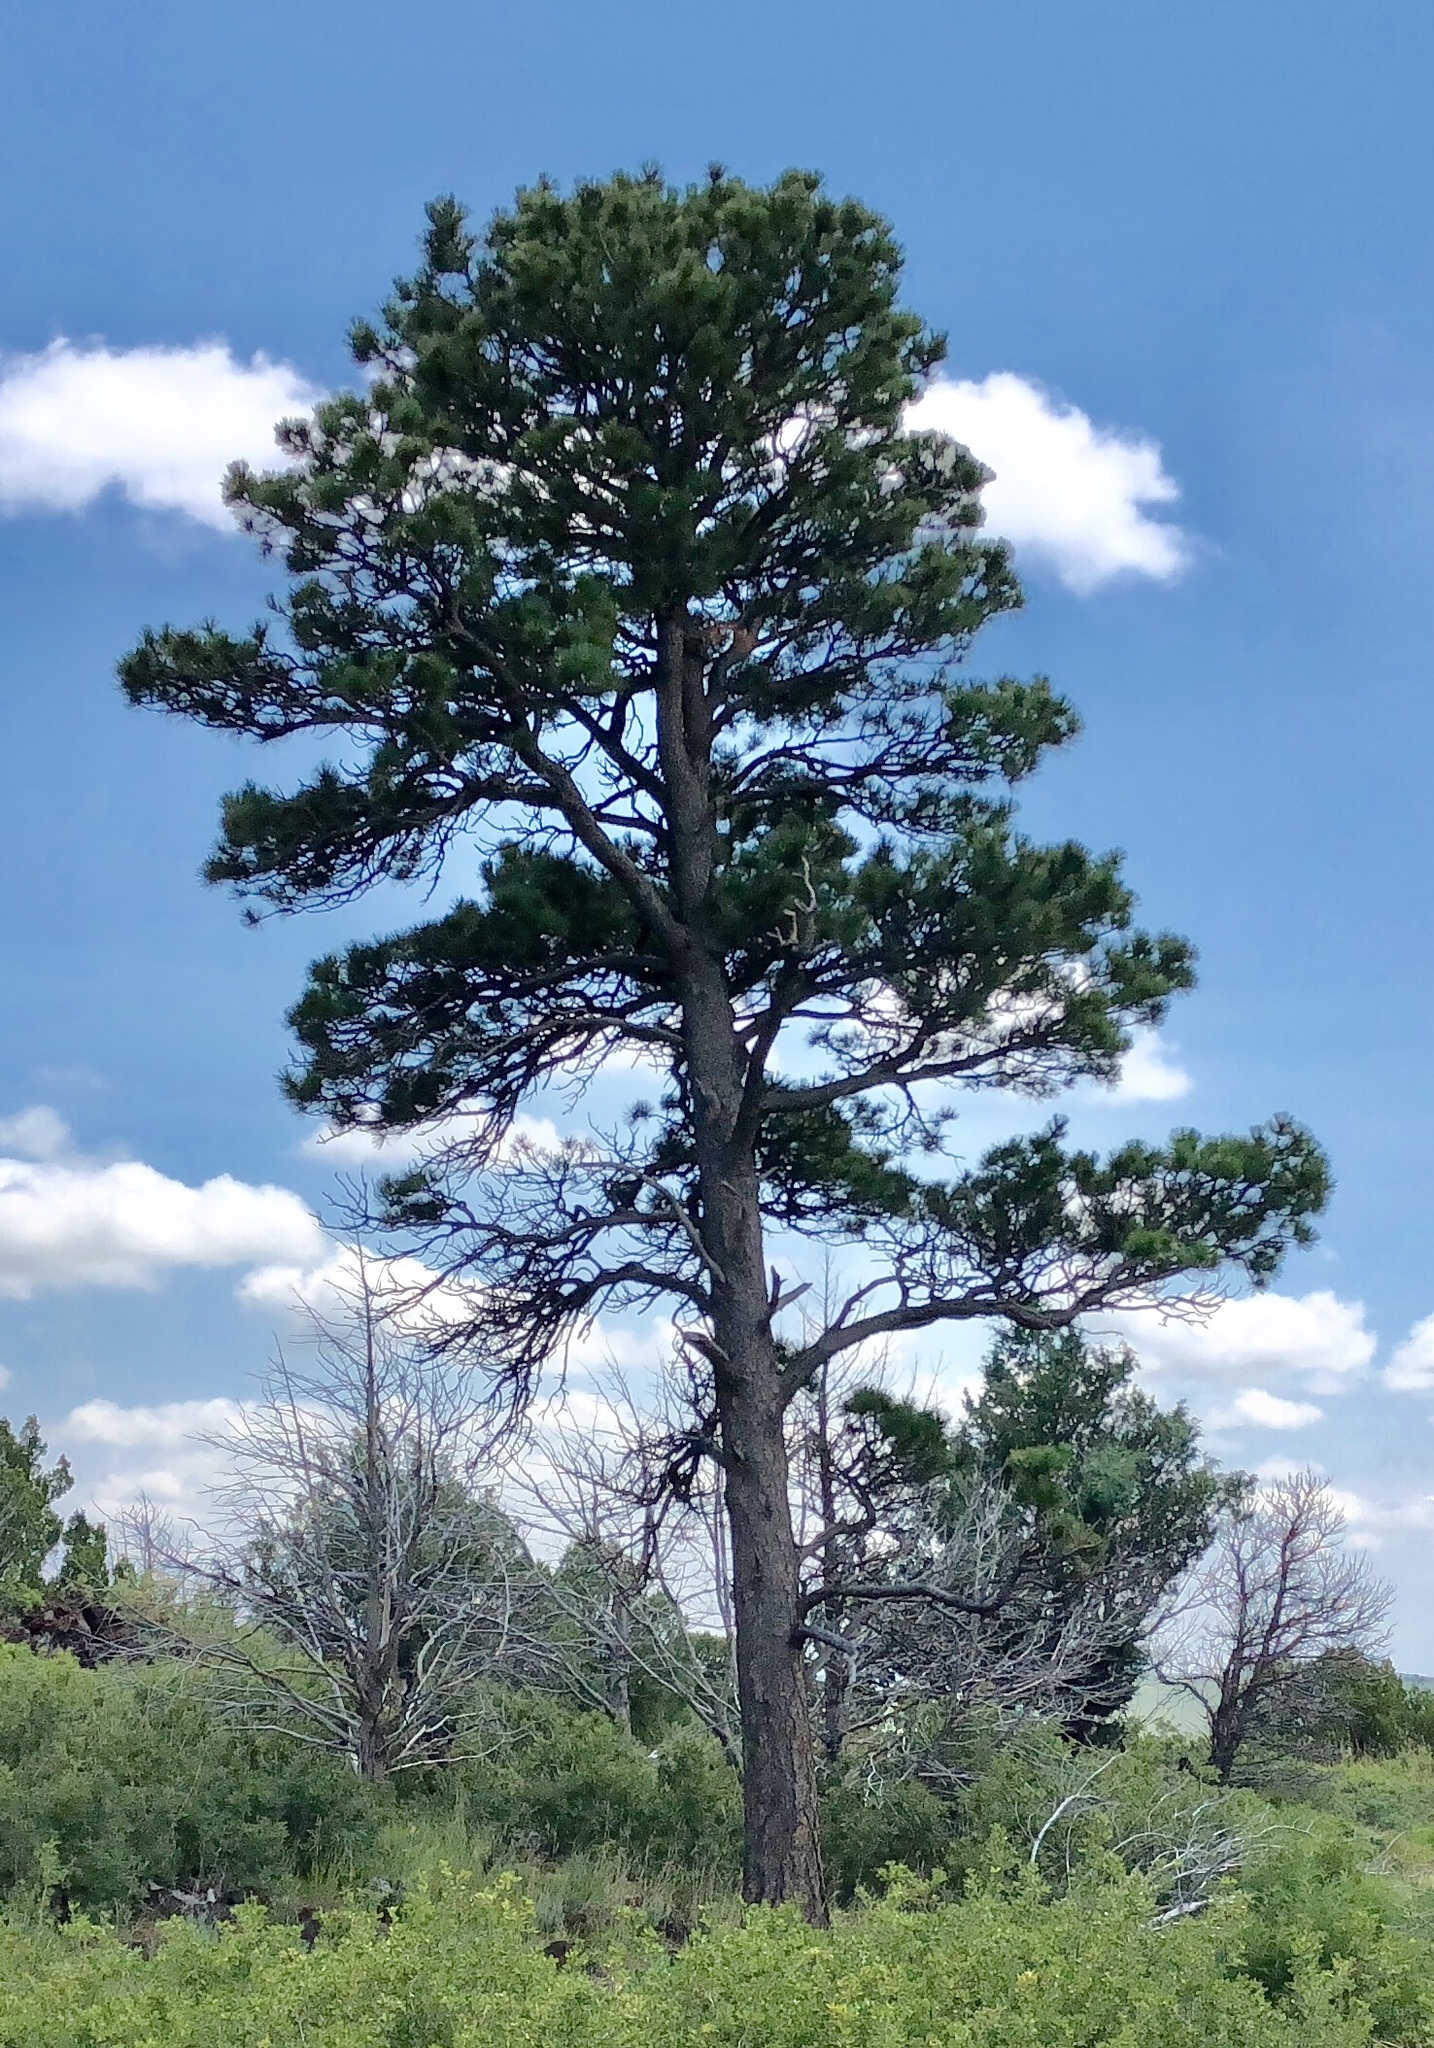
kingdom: Plantae
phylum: Tracheophyta
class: Pinopsida
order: Pinales
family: Pinaceae
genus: Pinus
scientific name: Pinus ponderosa
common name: Western yellow-pine
